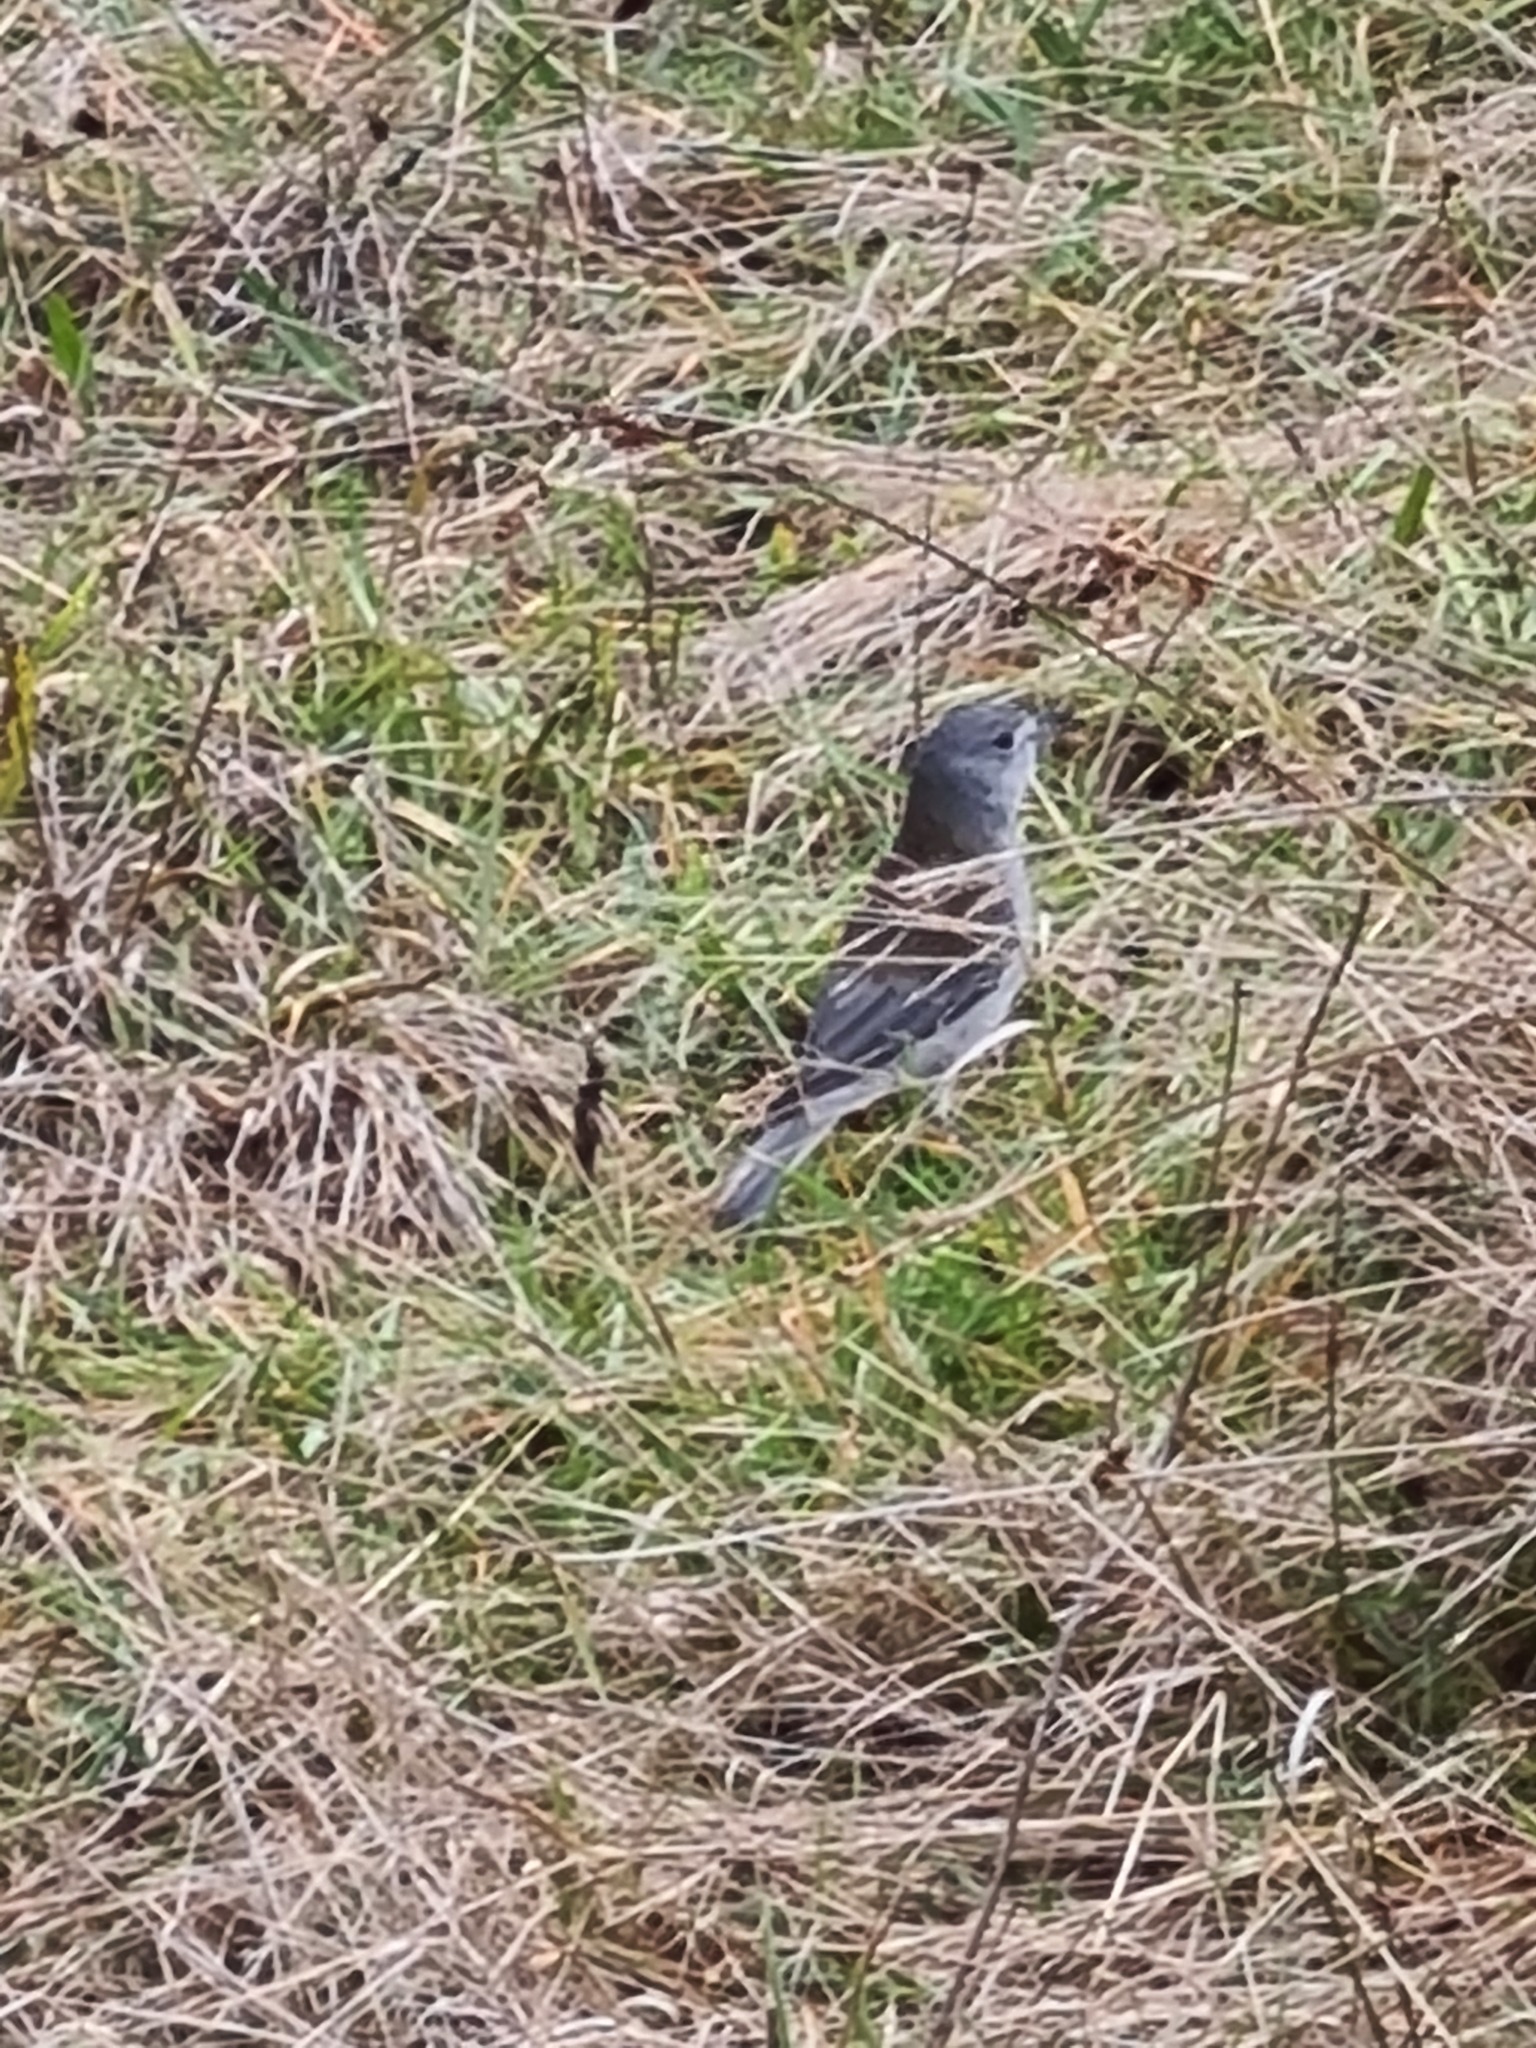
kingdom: Animalia
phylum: Chordata
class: Aves
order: Passeriformes
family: Pachycephalidae
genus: Colluricincla
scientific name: Colluricincla harmonica
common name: Grey shrikethrush
